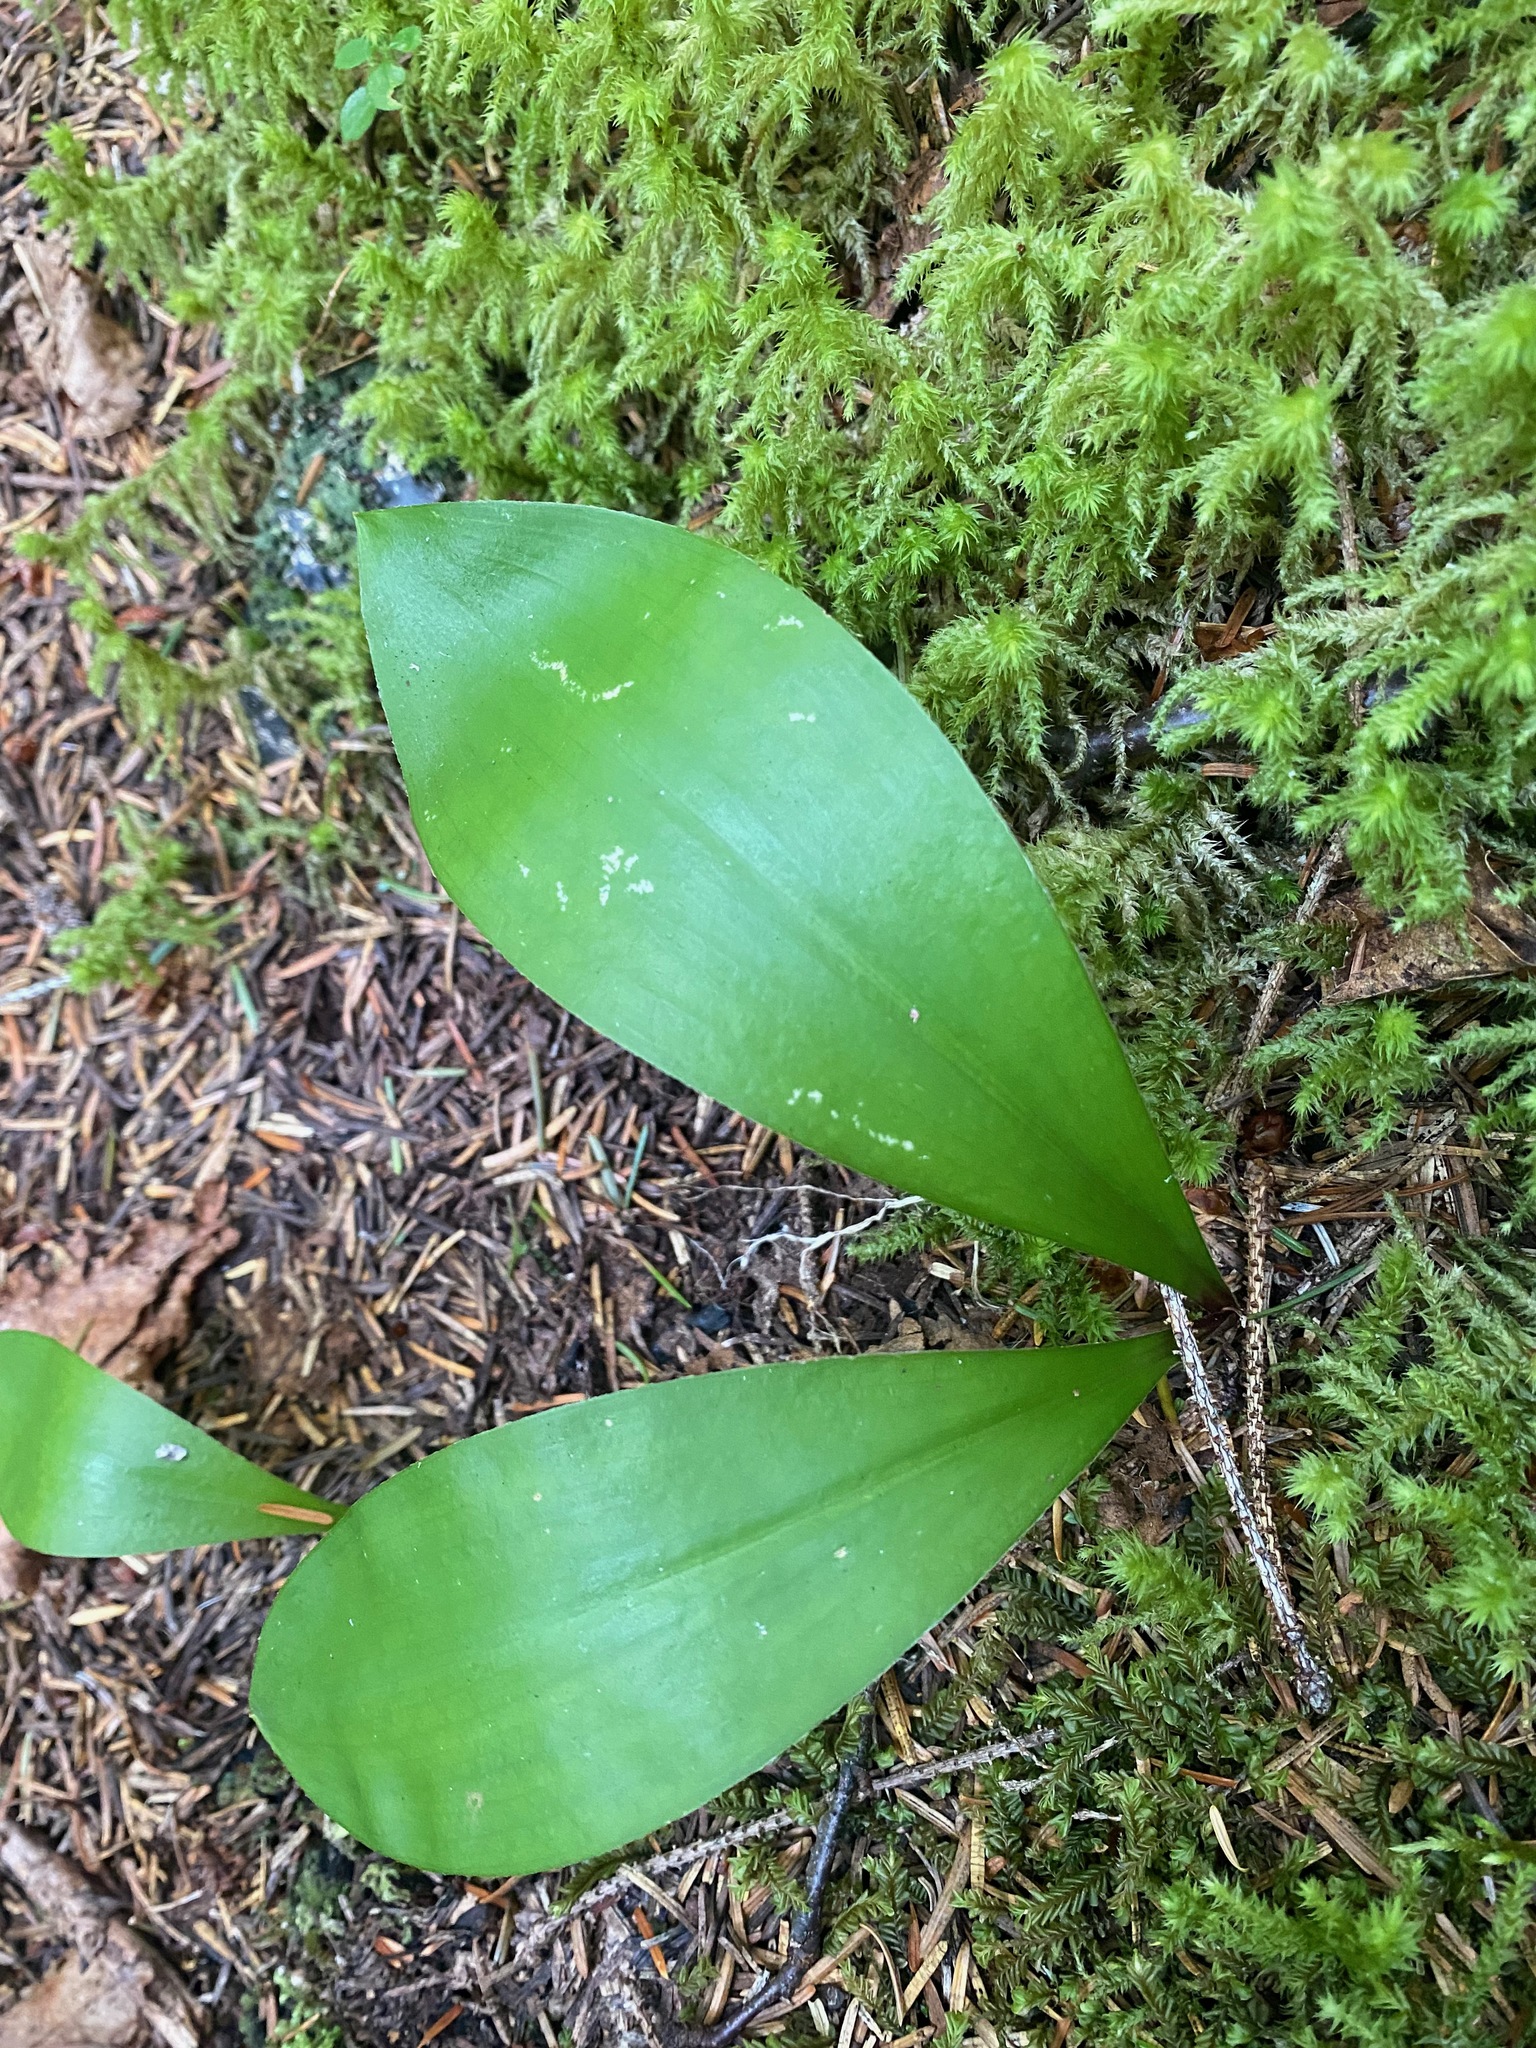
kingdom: Plantae
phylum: Tracheophyta
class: Liliopsida
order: Liliales
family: Liliaceae
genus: Clintonia
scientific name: Clintonia uniflora
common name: Queen's cup
